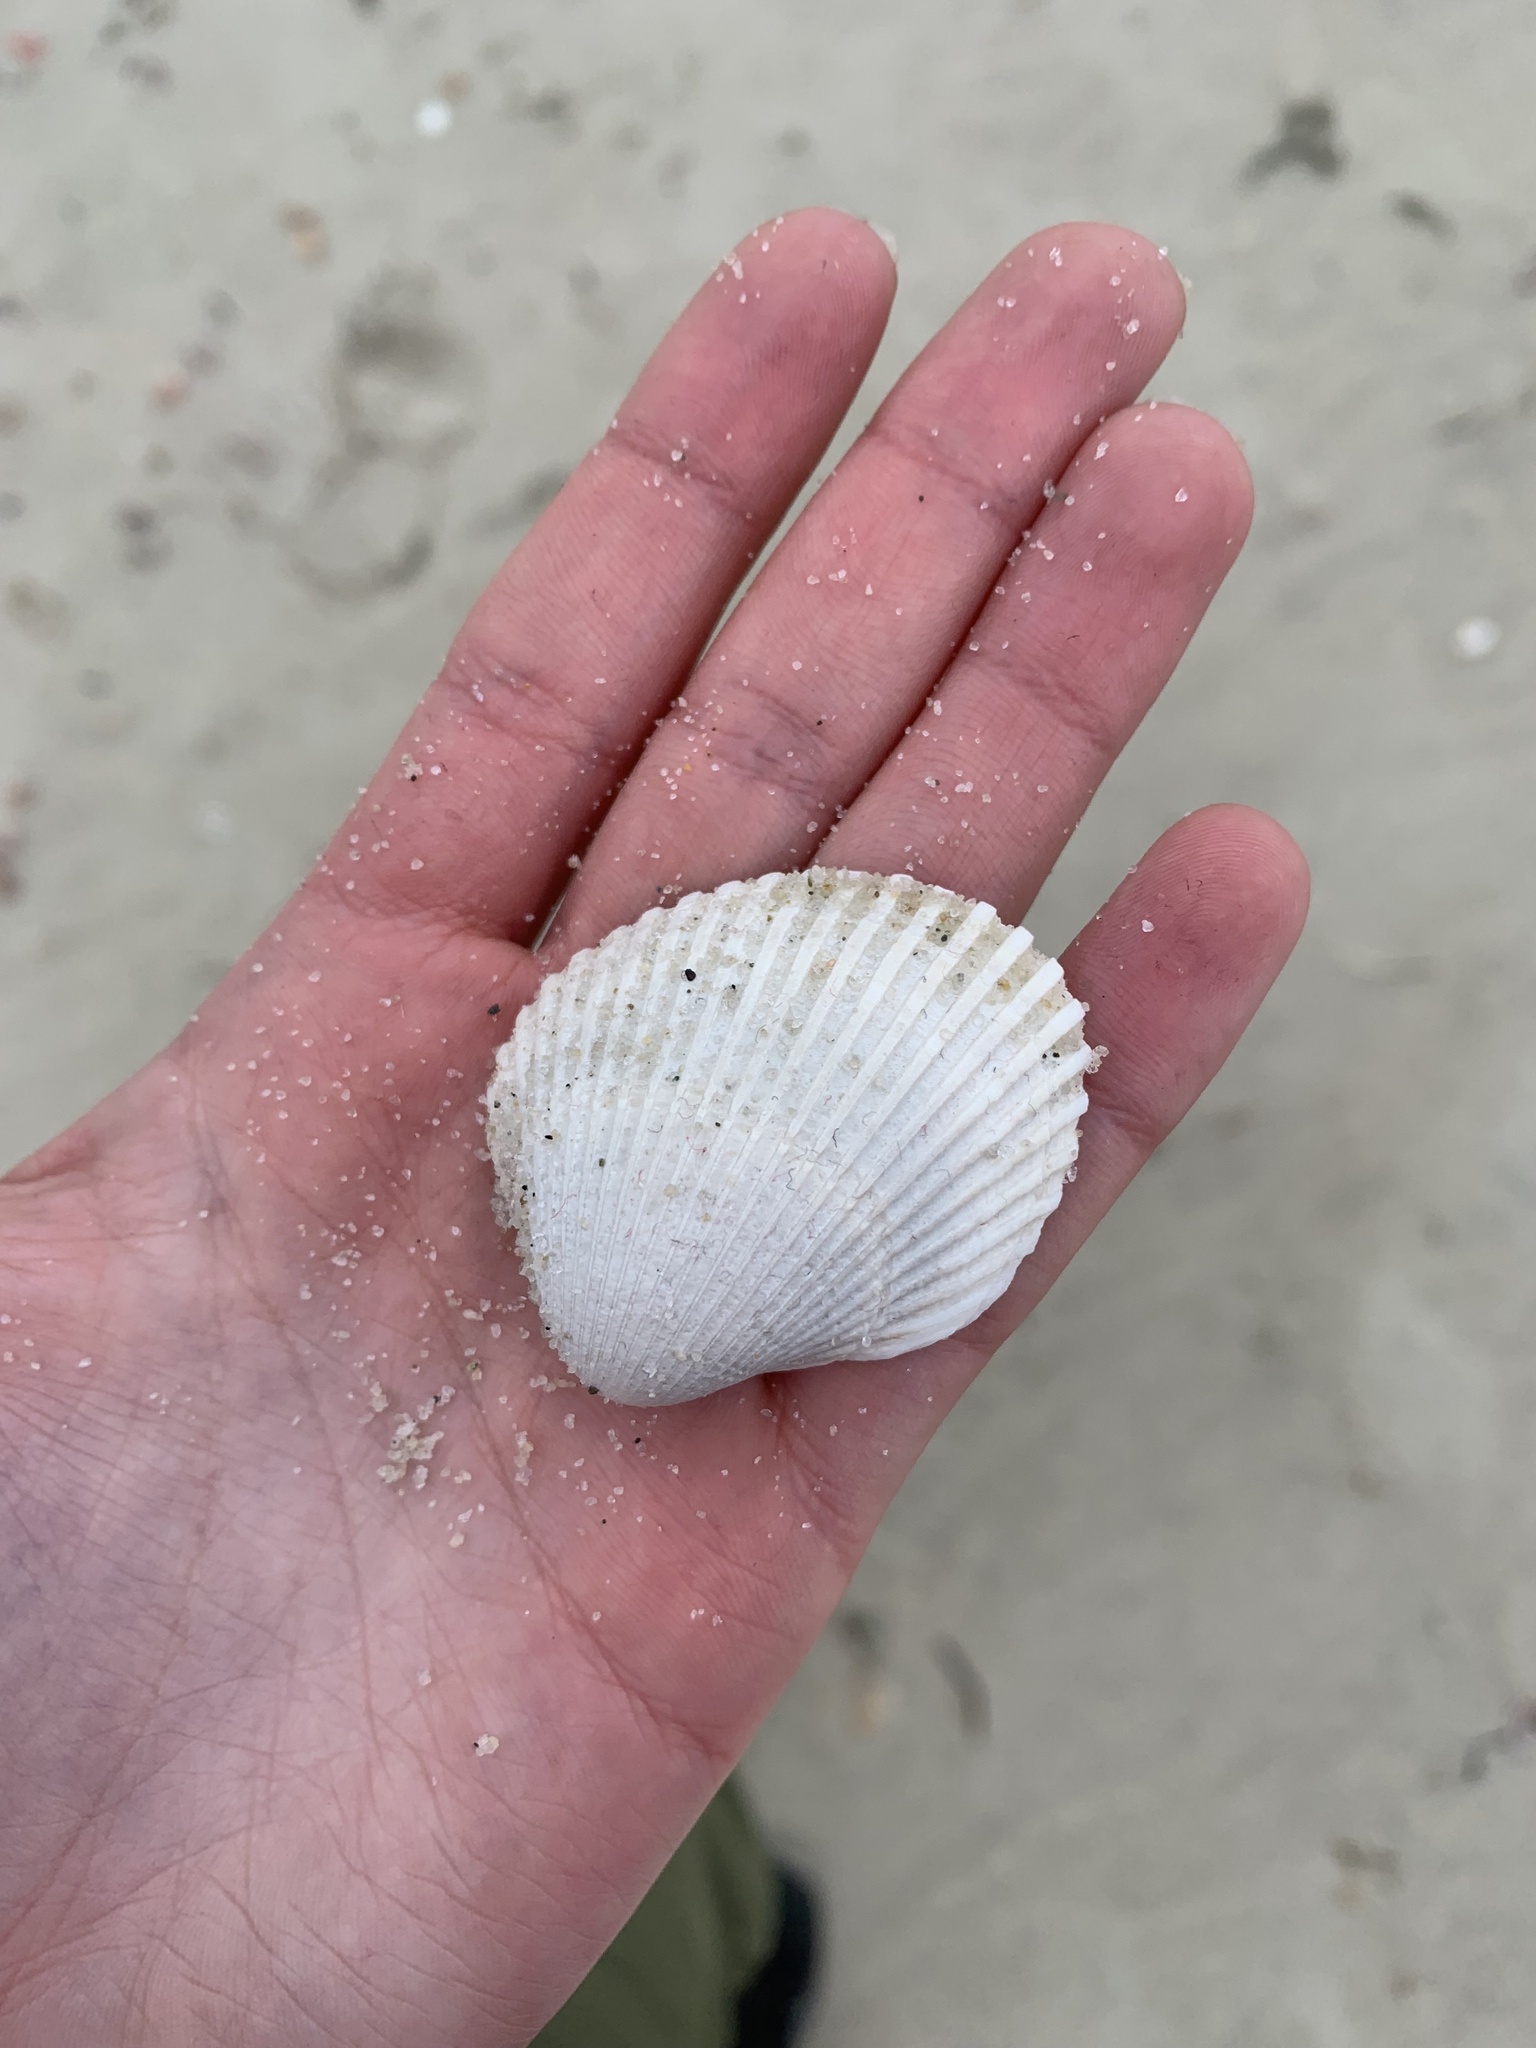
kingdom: Animalia
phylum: Mollusca
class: Bivalvia
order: Arcida
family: Arcidae
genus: Lunarca
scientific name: Lunarca ovalis
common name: Blood ark
